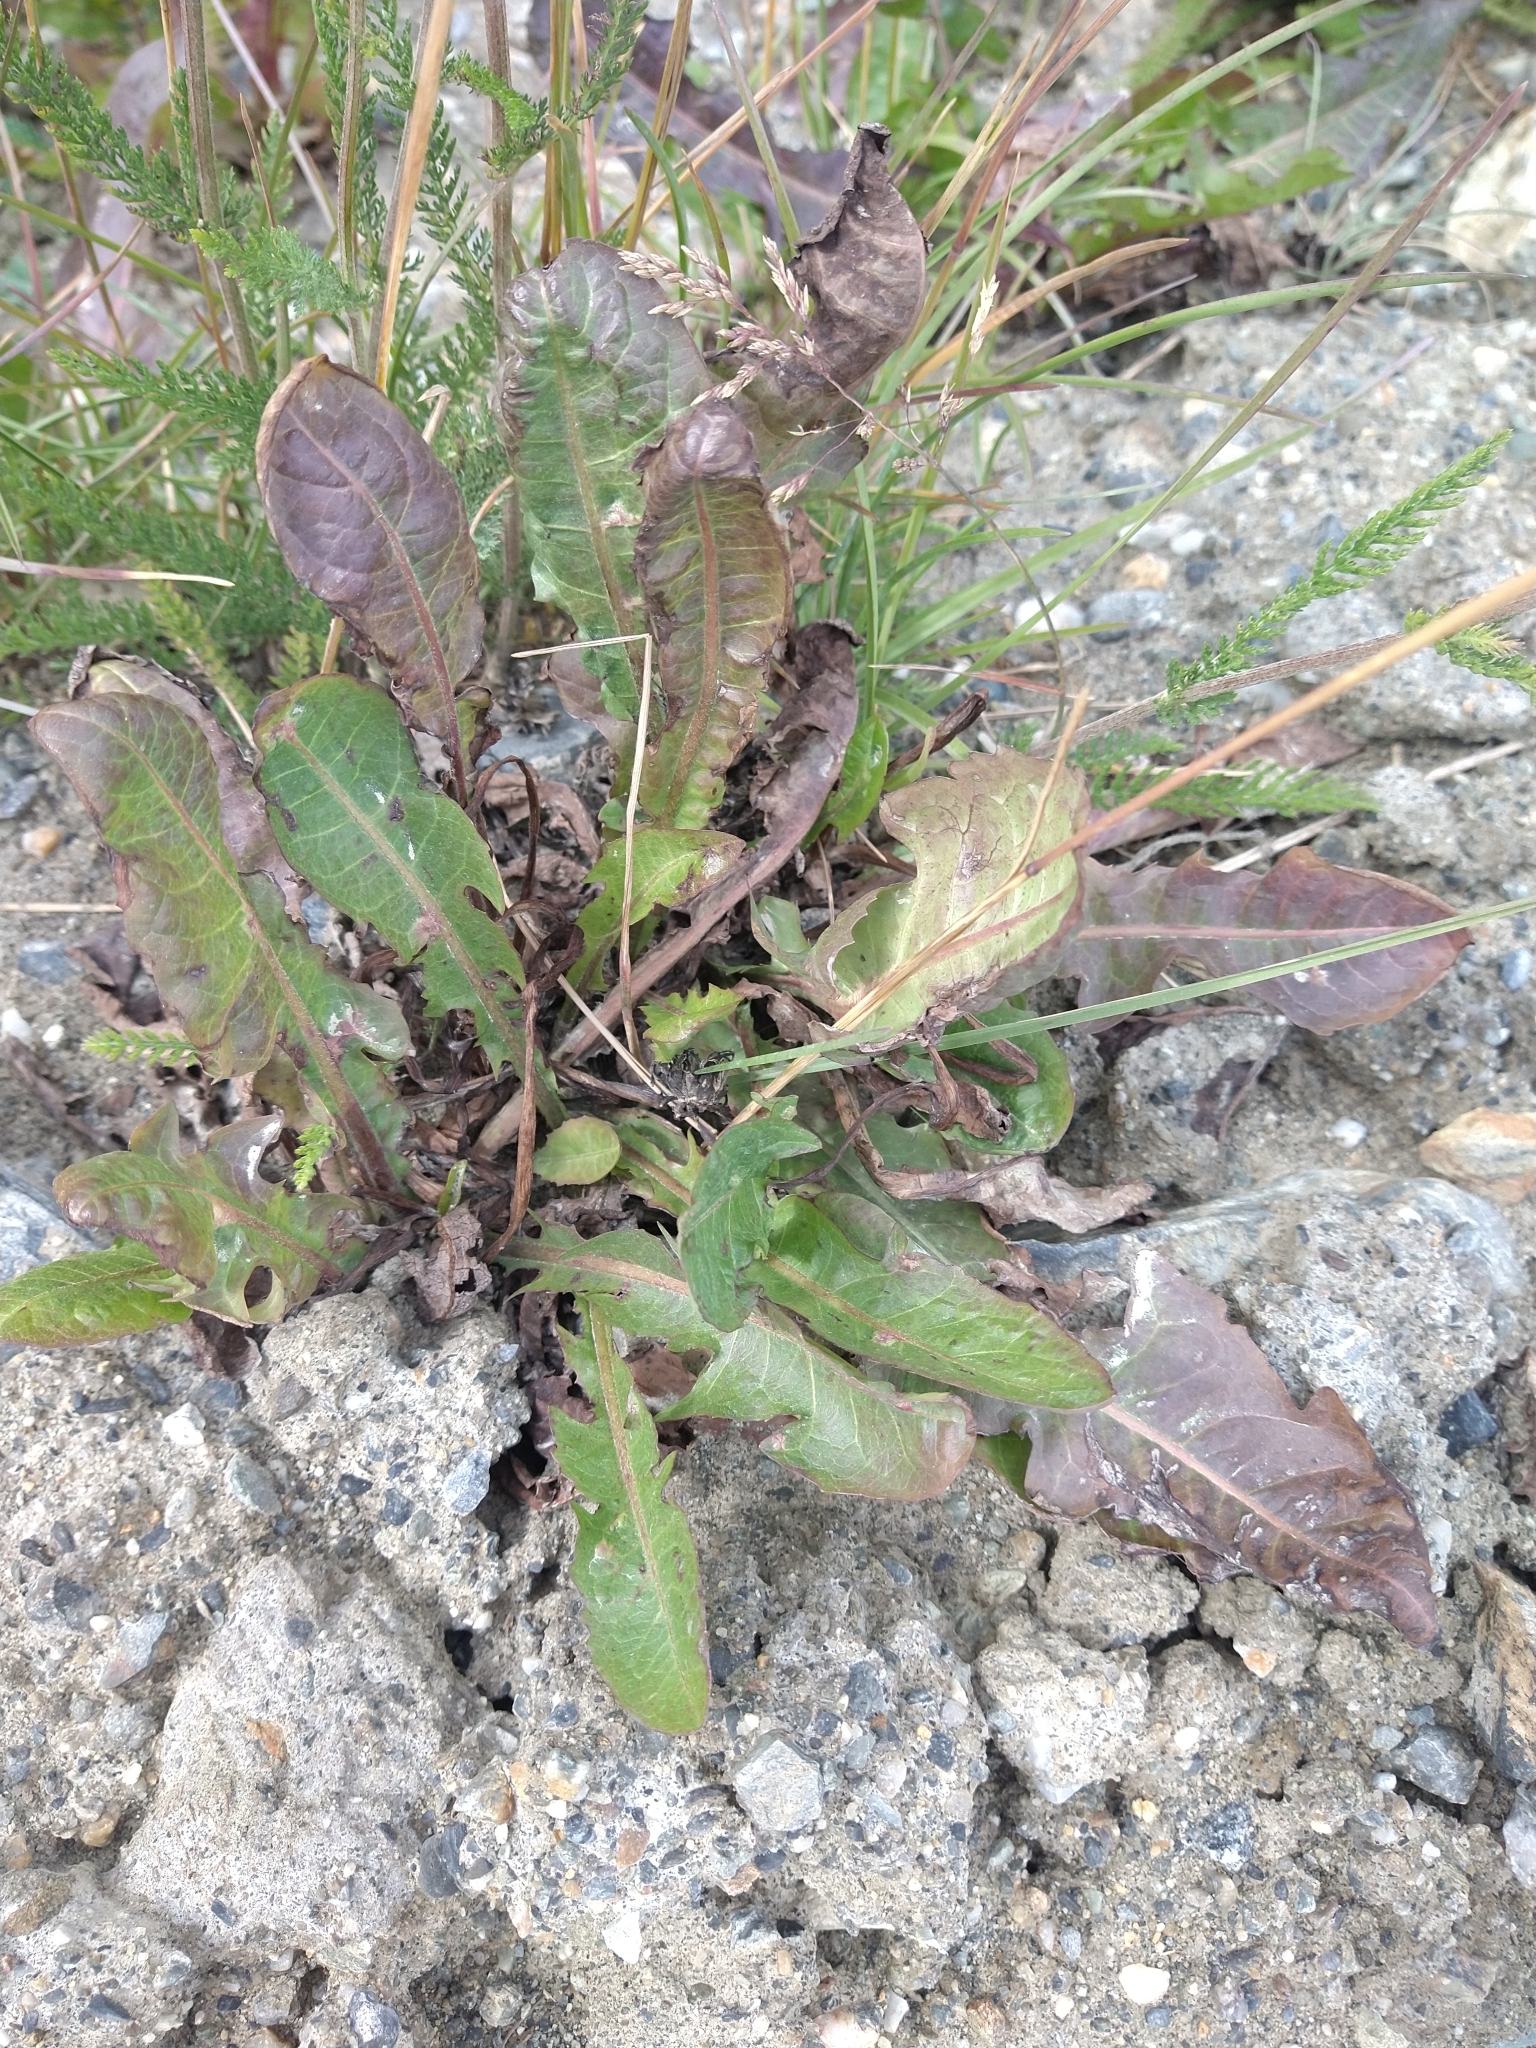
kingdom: Plantae
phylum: Tracheophyta
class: Magnoliopsida
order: Asterales
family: Asteraceae
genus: Taraxacum
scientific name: Taraxacum officinale
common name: Common dandelion
